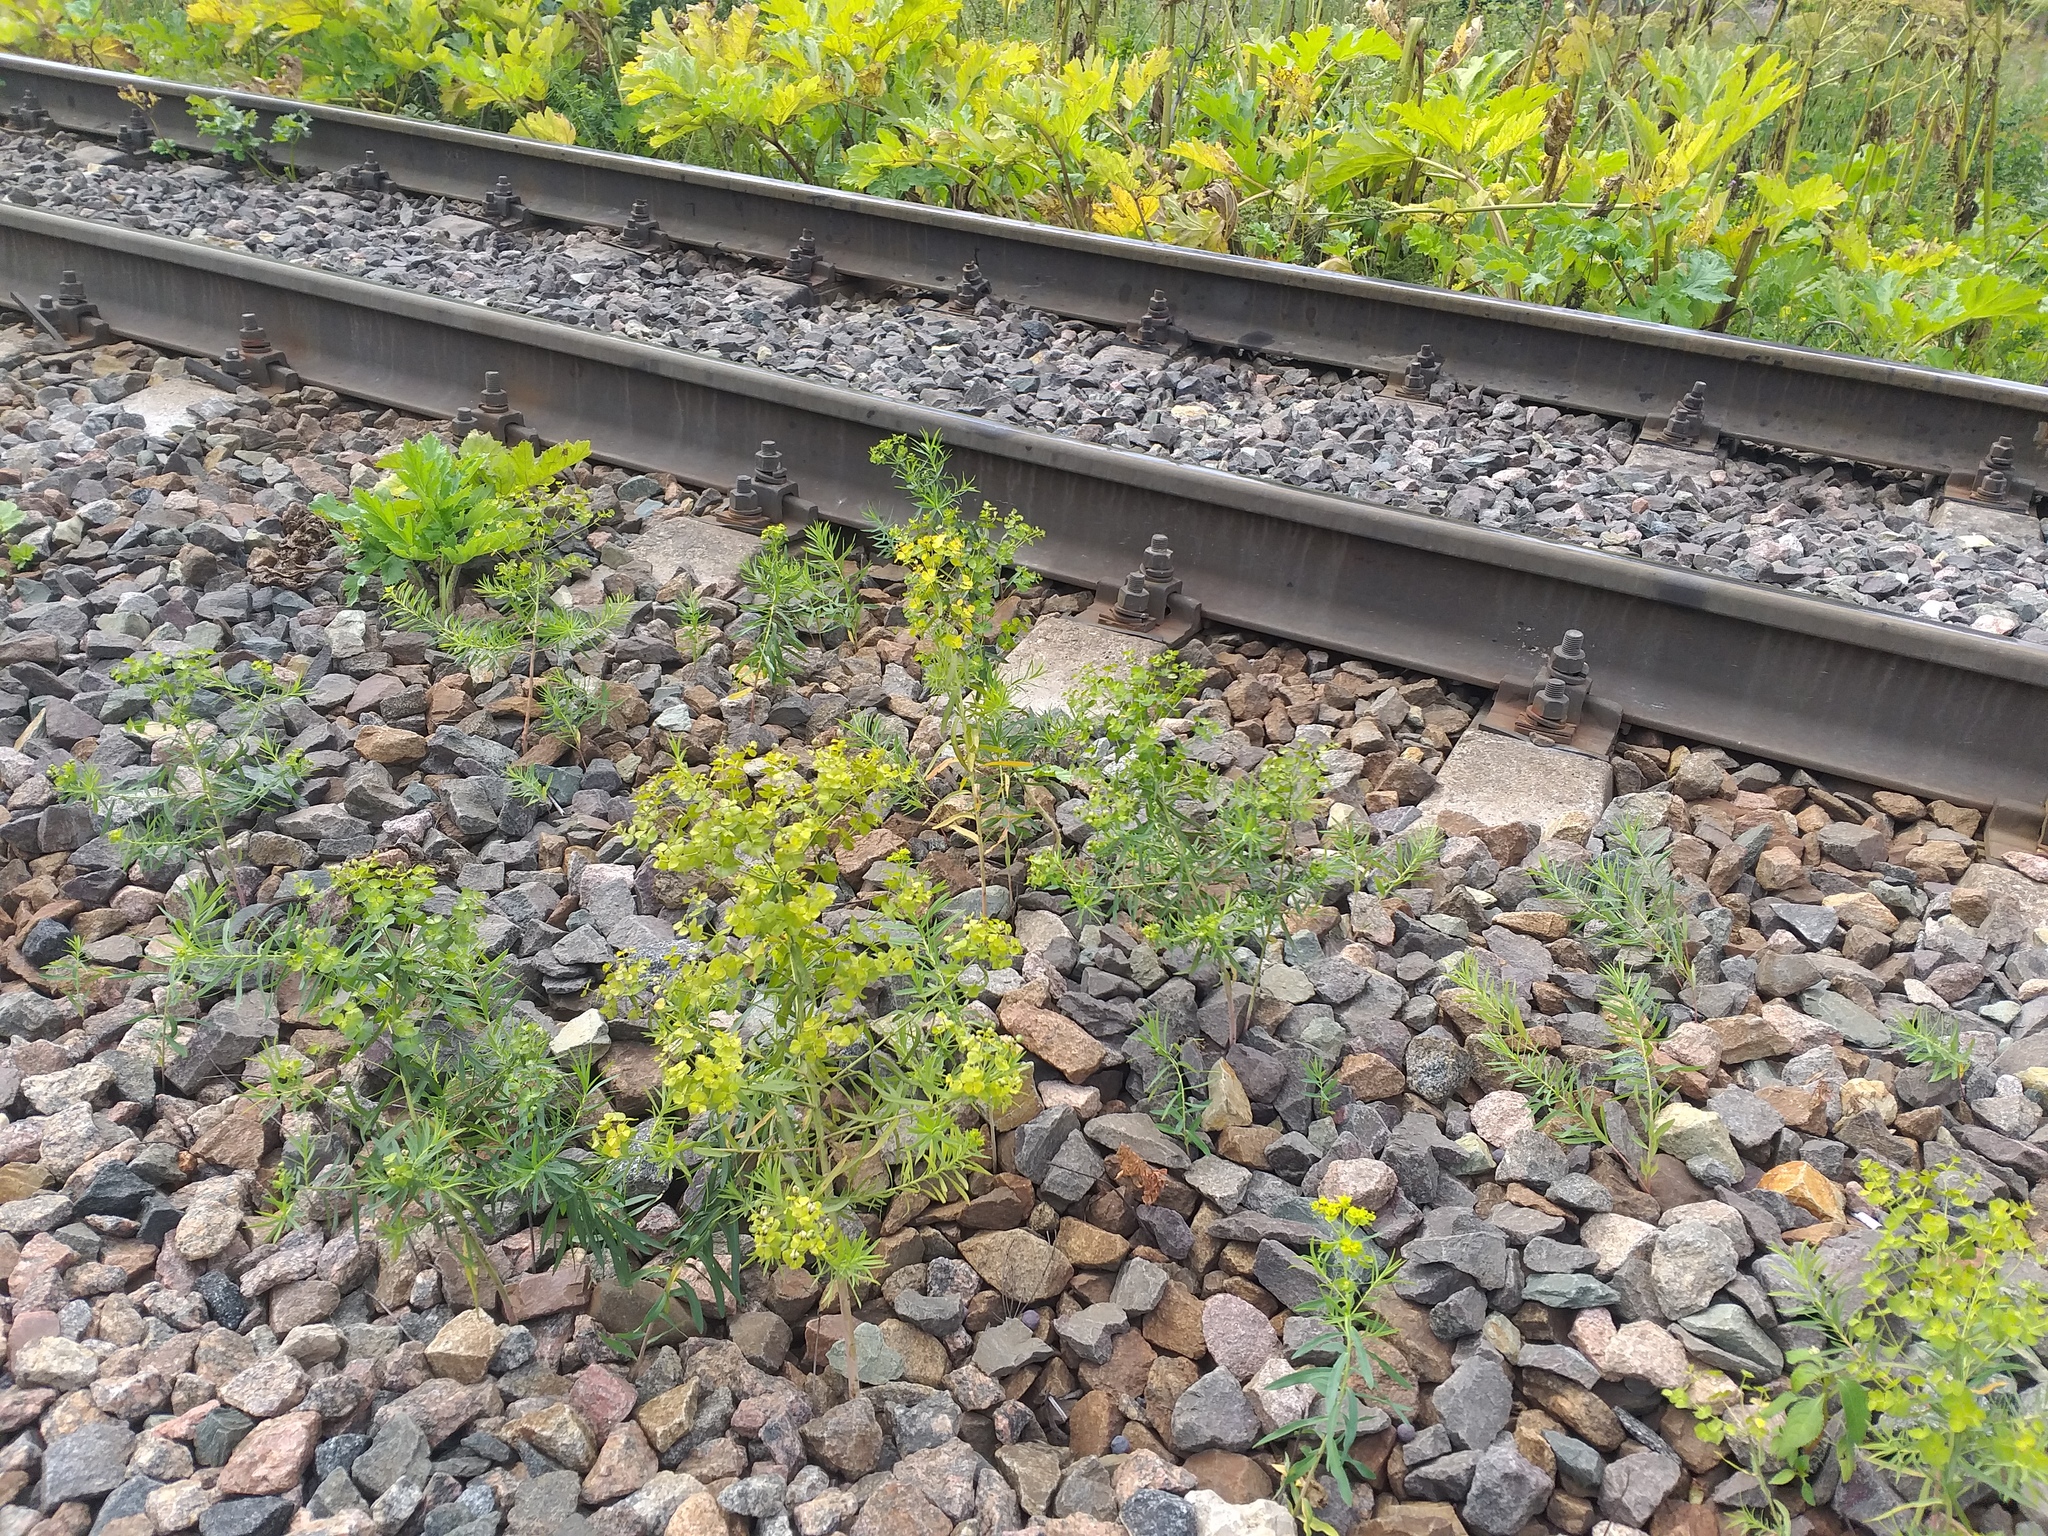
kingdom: Plantae
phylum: Tracheophyta
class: Magnoliopsida
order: Malpighiales
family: Euphorbiaceae
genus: Euphorbia
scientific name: Euphorbia virgata
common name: Leafy spurge
